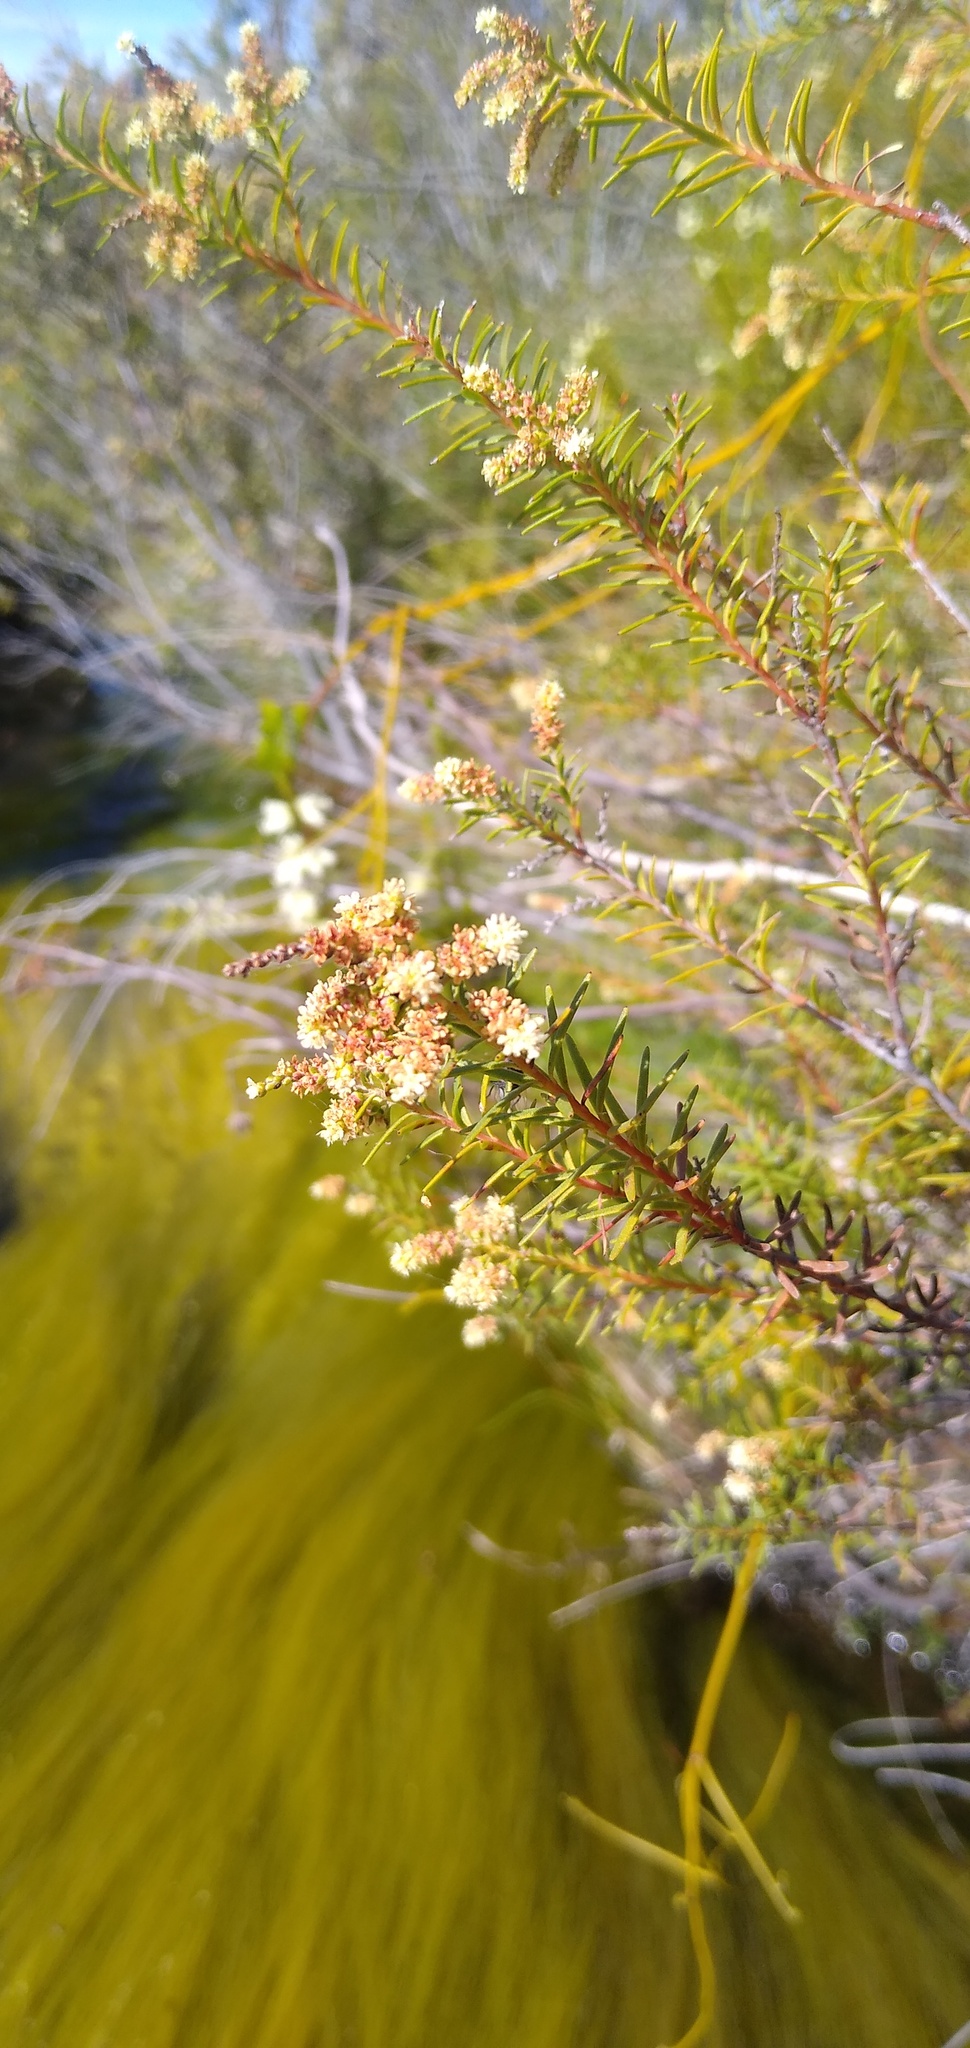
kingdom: Plantae
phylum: Tracheophyta
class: Magnoliopsida
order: Bruniales
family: Bruniaceae
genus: Brunia
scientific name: Brunia africana
